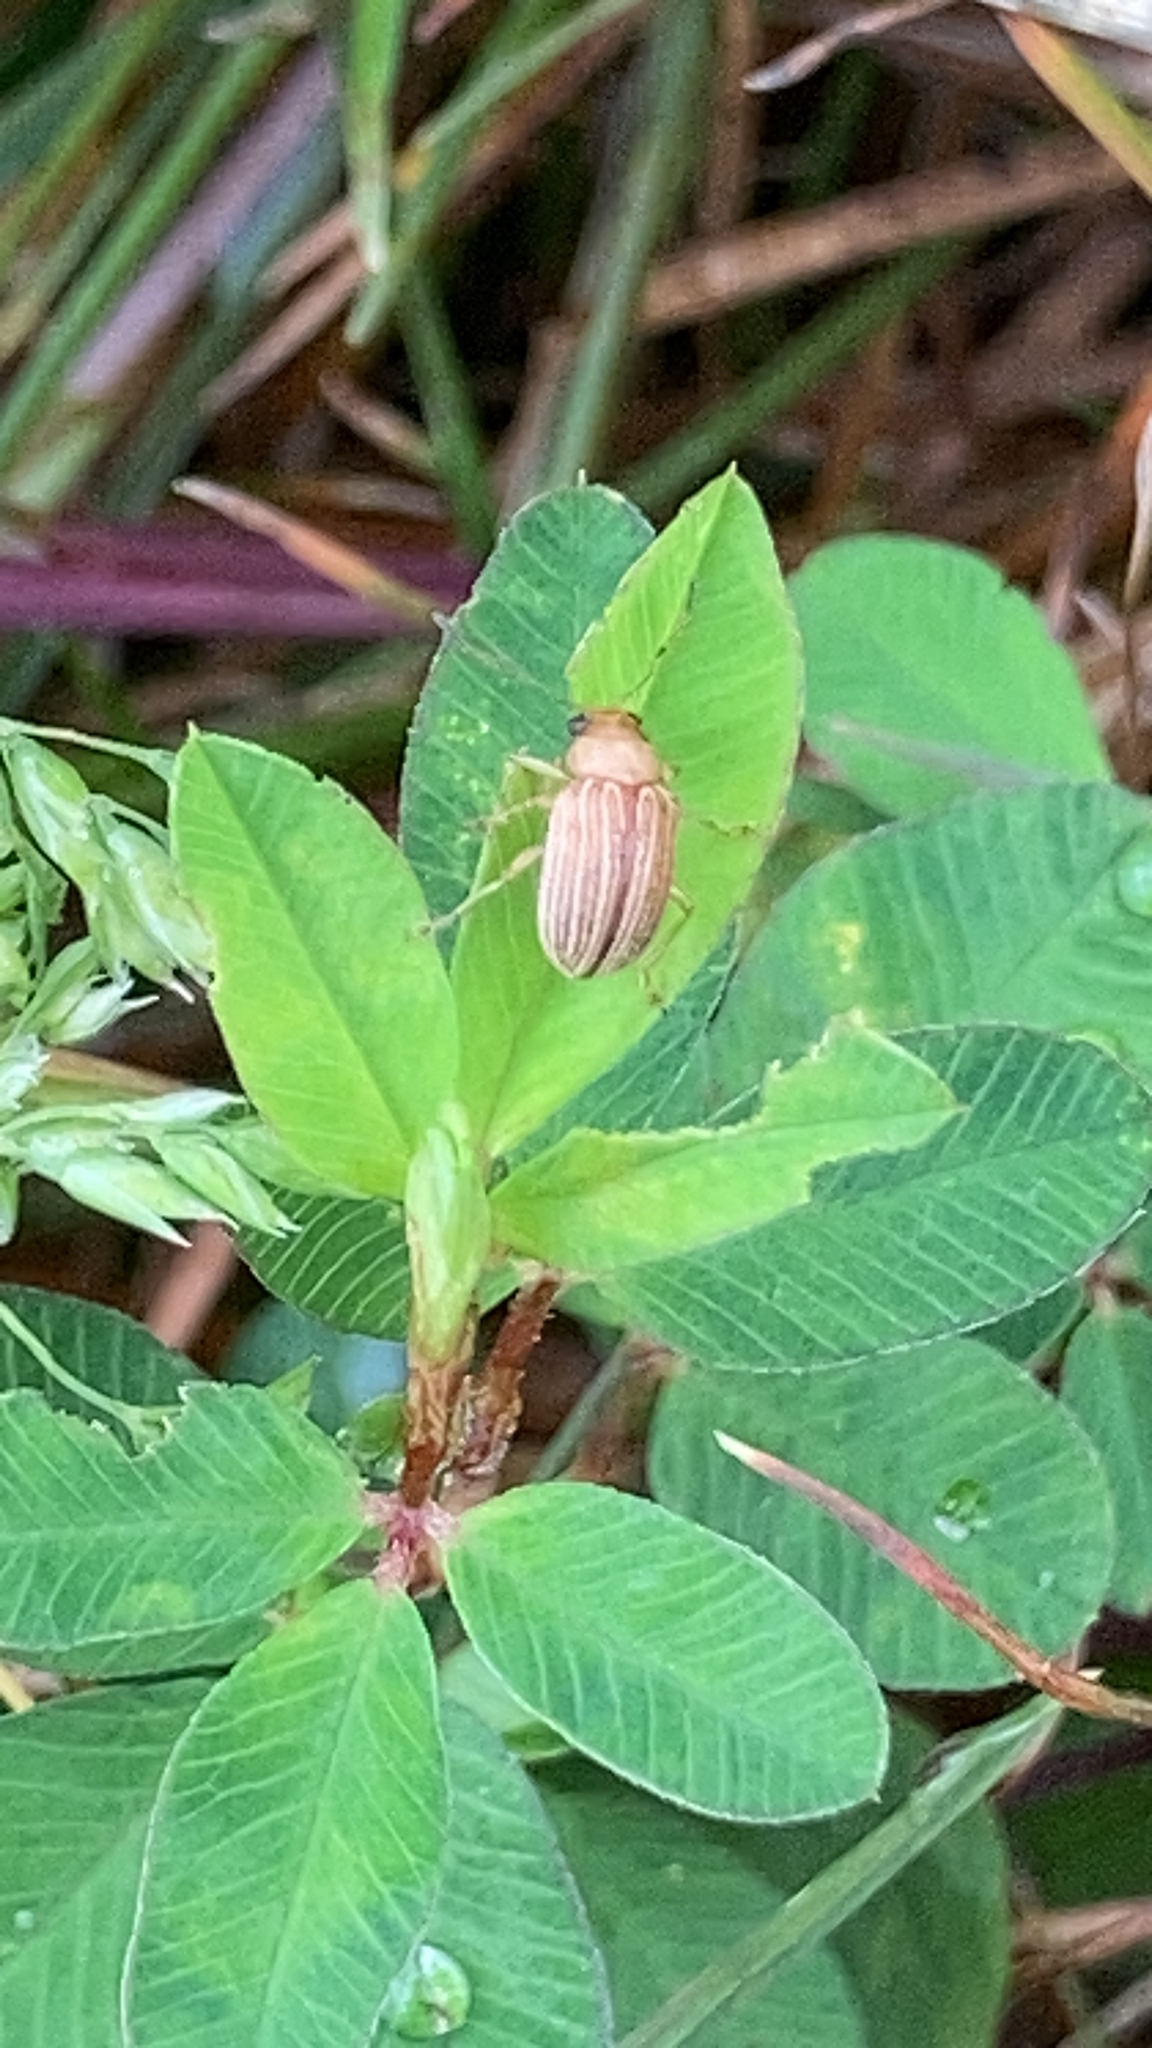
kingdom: Animalia
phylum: Arthropoda
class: Insecta
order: Coleoptera
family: Chrysomelidae
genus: Colaspis
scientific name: Colaspis brunnea
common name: Grape colaspis
